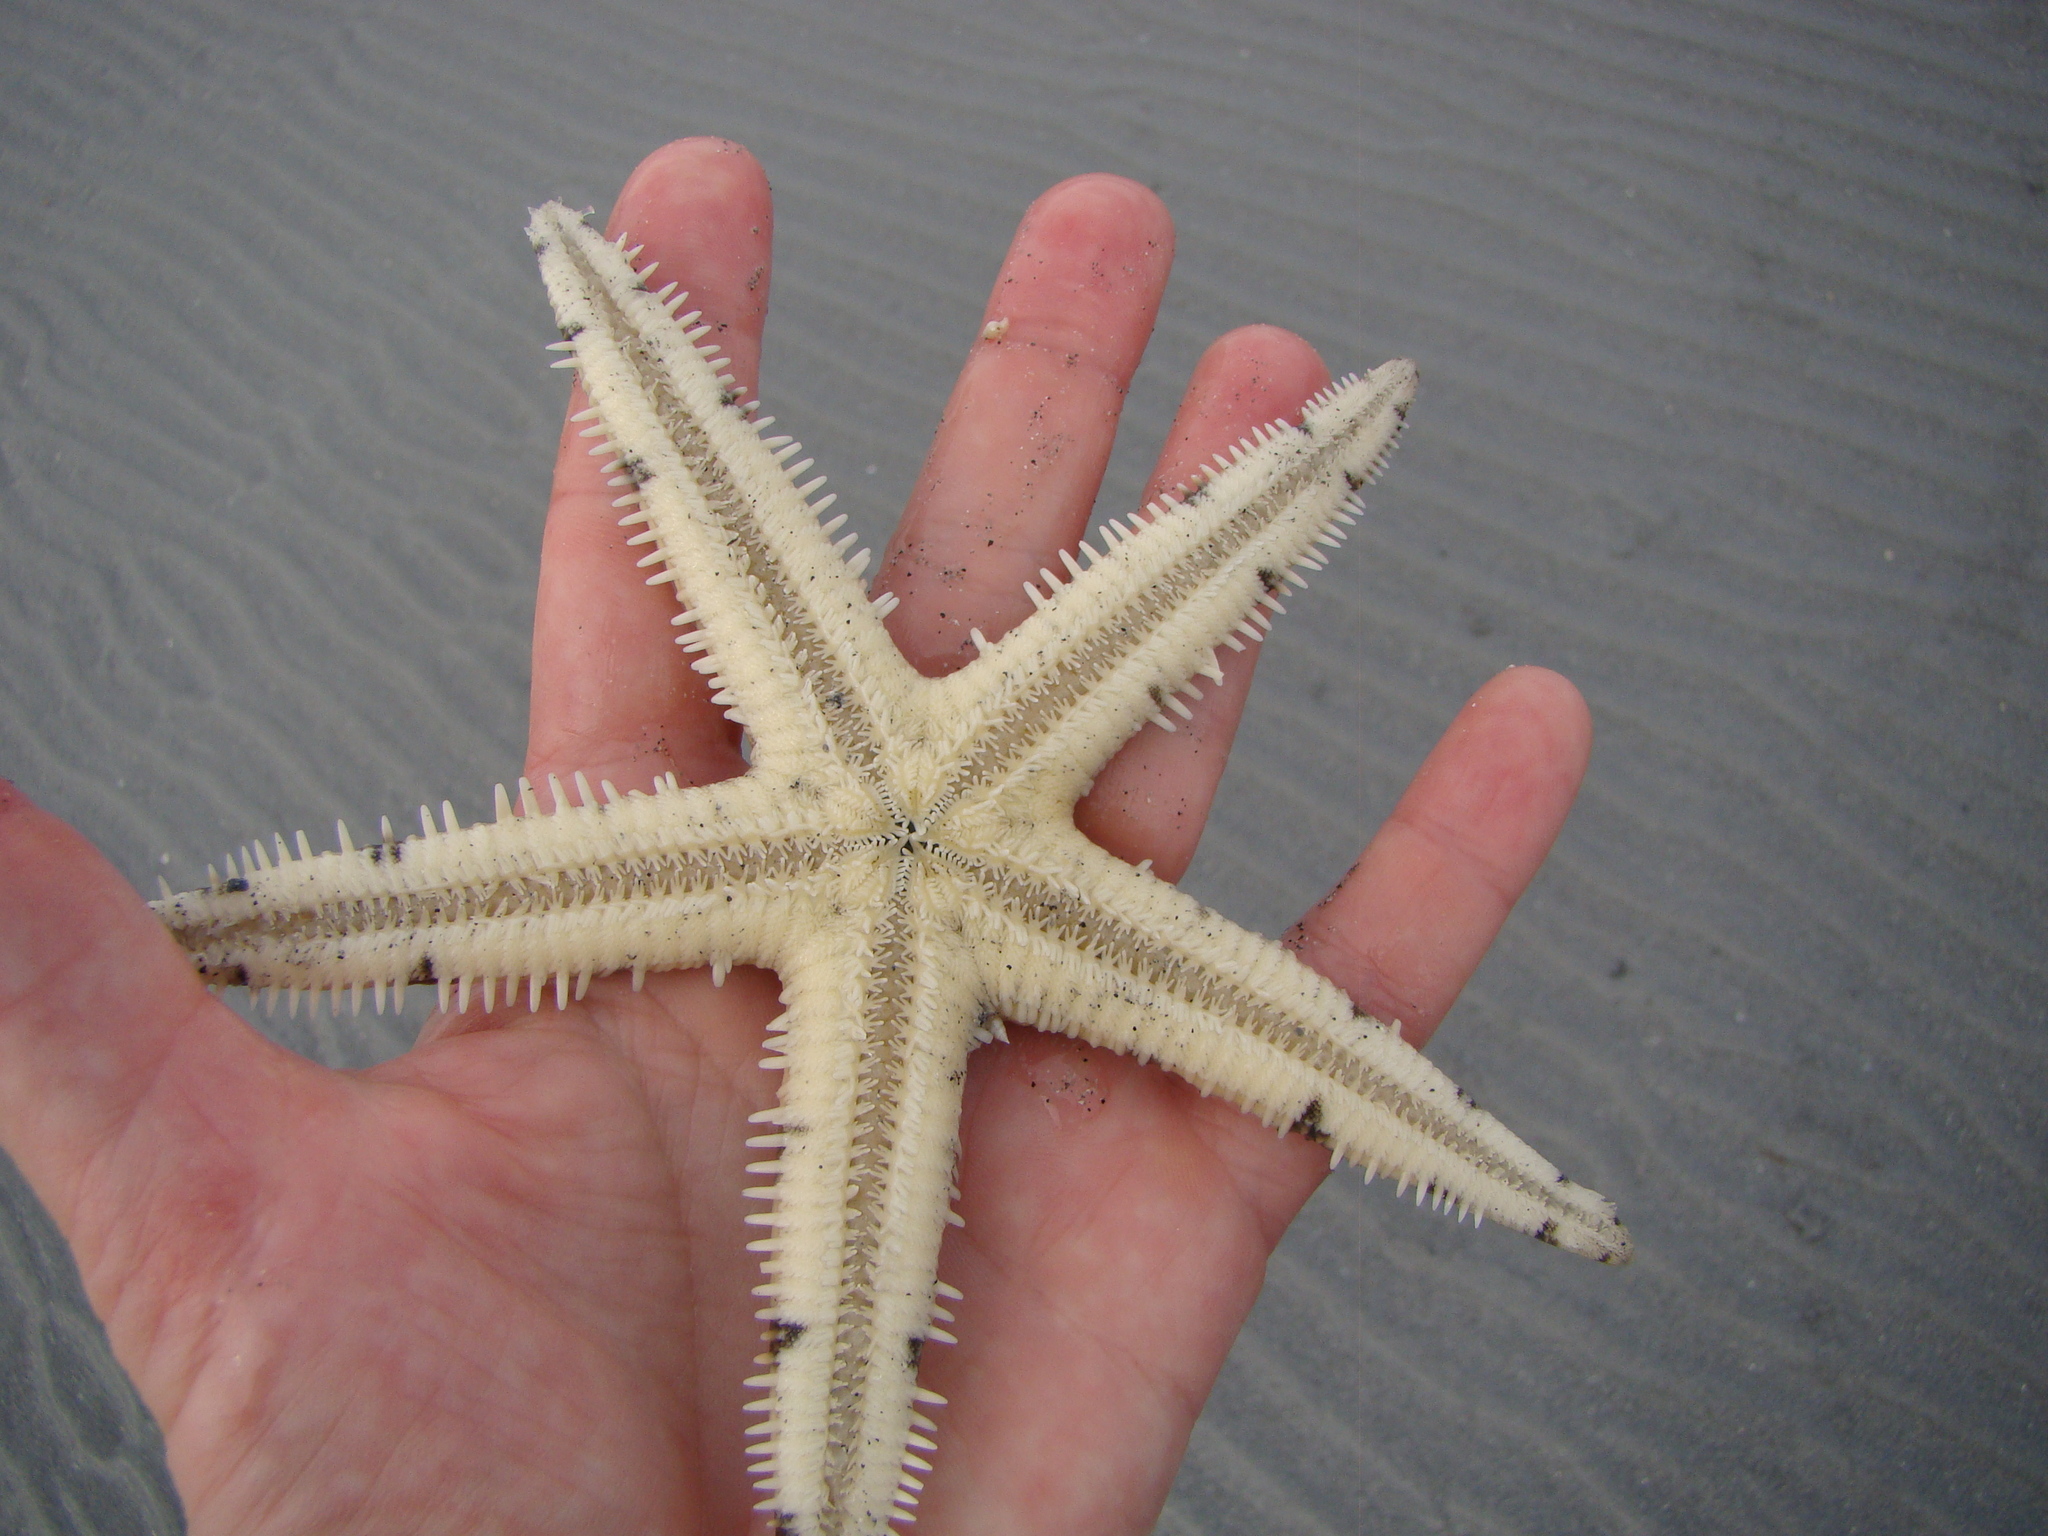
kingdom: Animalia
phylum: Echinodermata
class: Asteroidea
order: Valvatida
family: Archasteridae
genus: Archaster
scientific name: Archaster typicus
